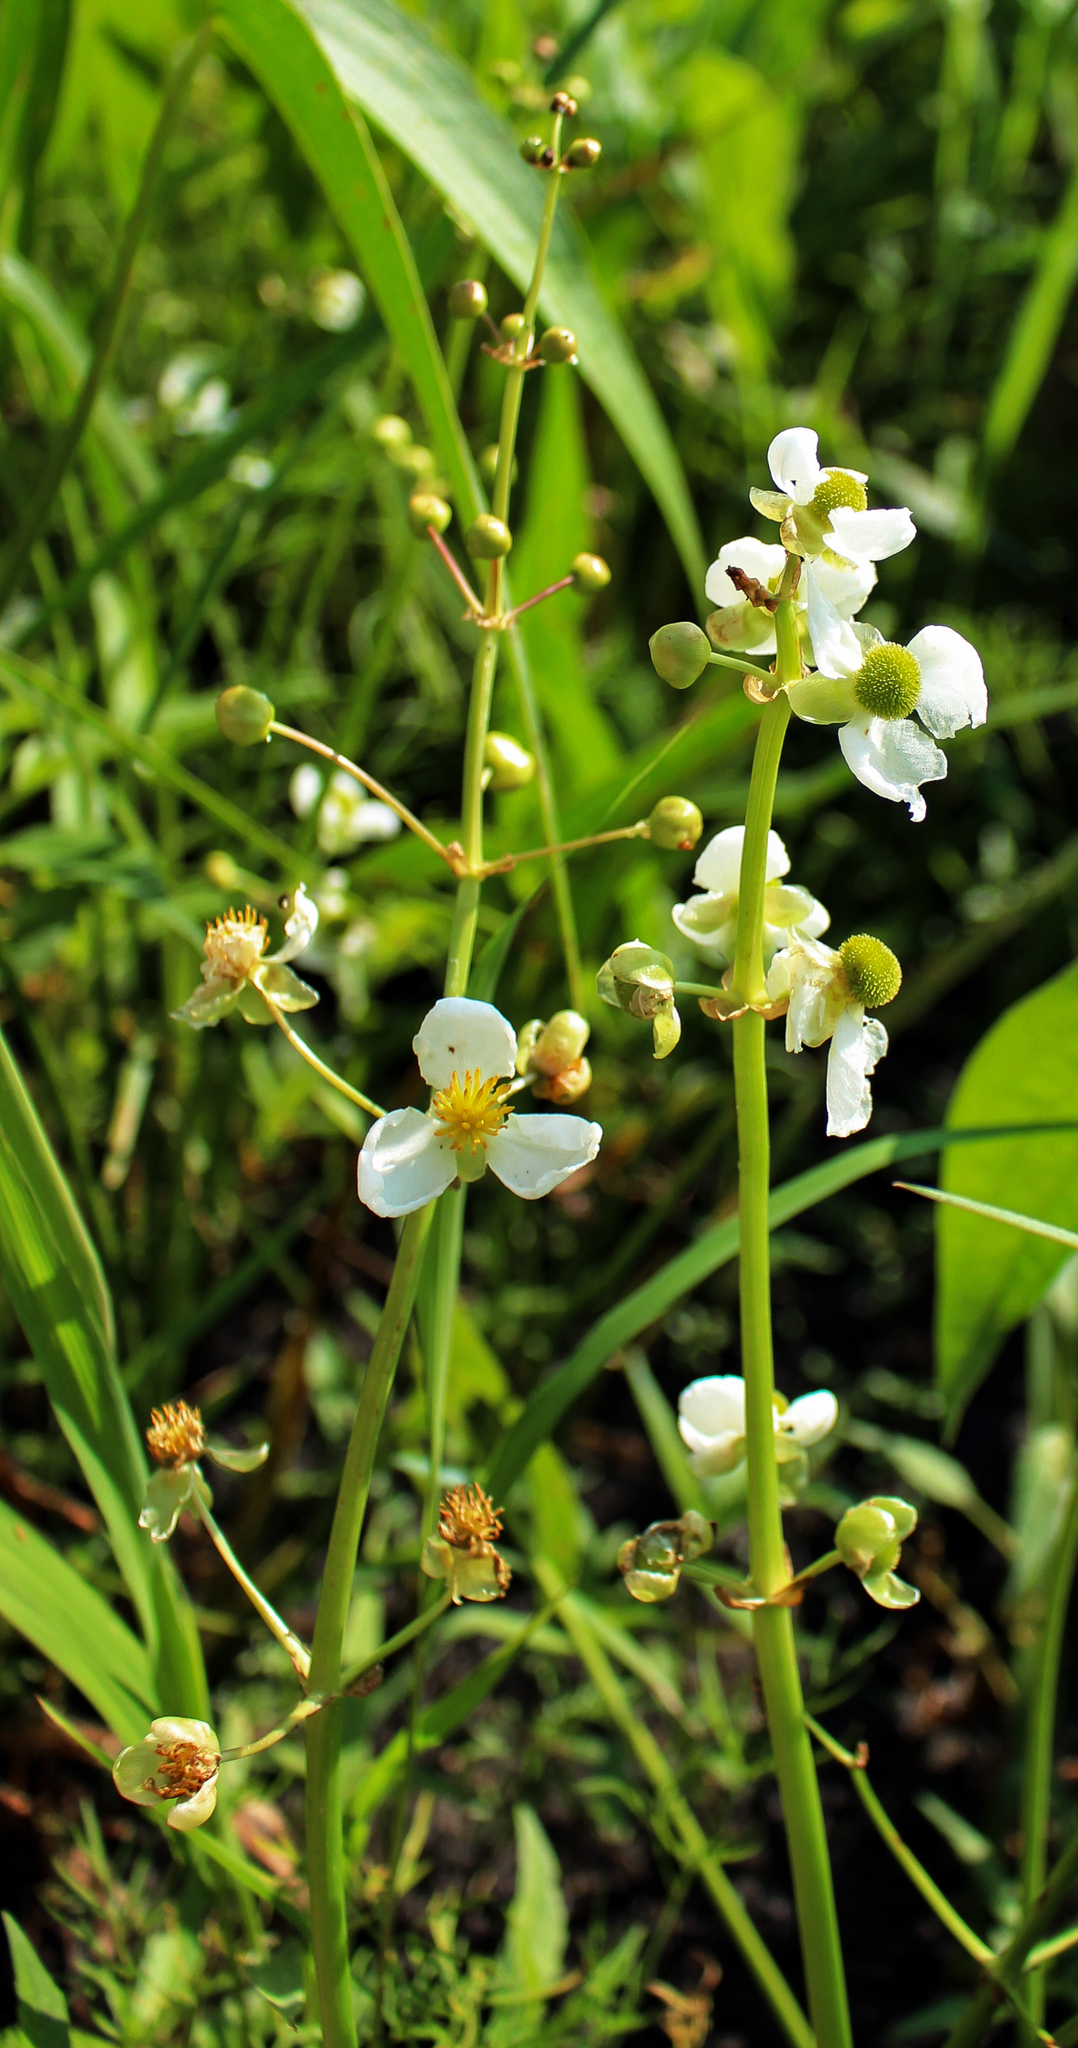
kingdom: Plantae
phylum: Tracheophyta
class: Liliopsida
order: Alismatales
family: Alismataceae
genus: Sagittaria
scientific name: Sagittaria latifolia
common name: Duck-potato
